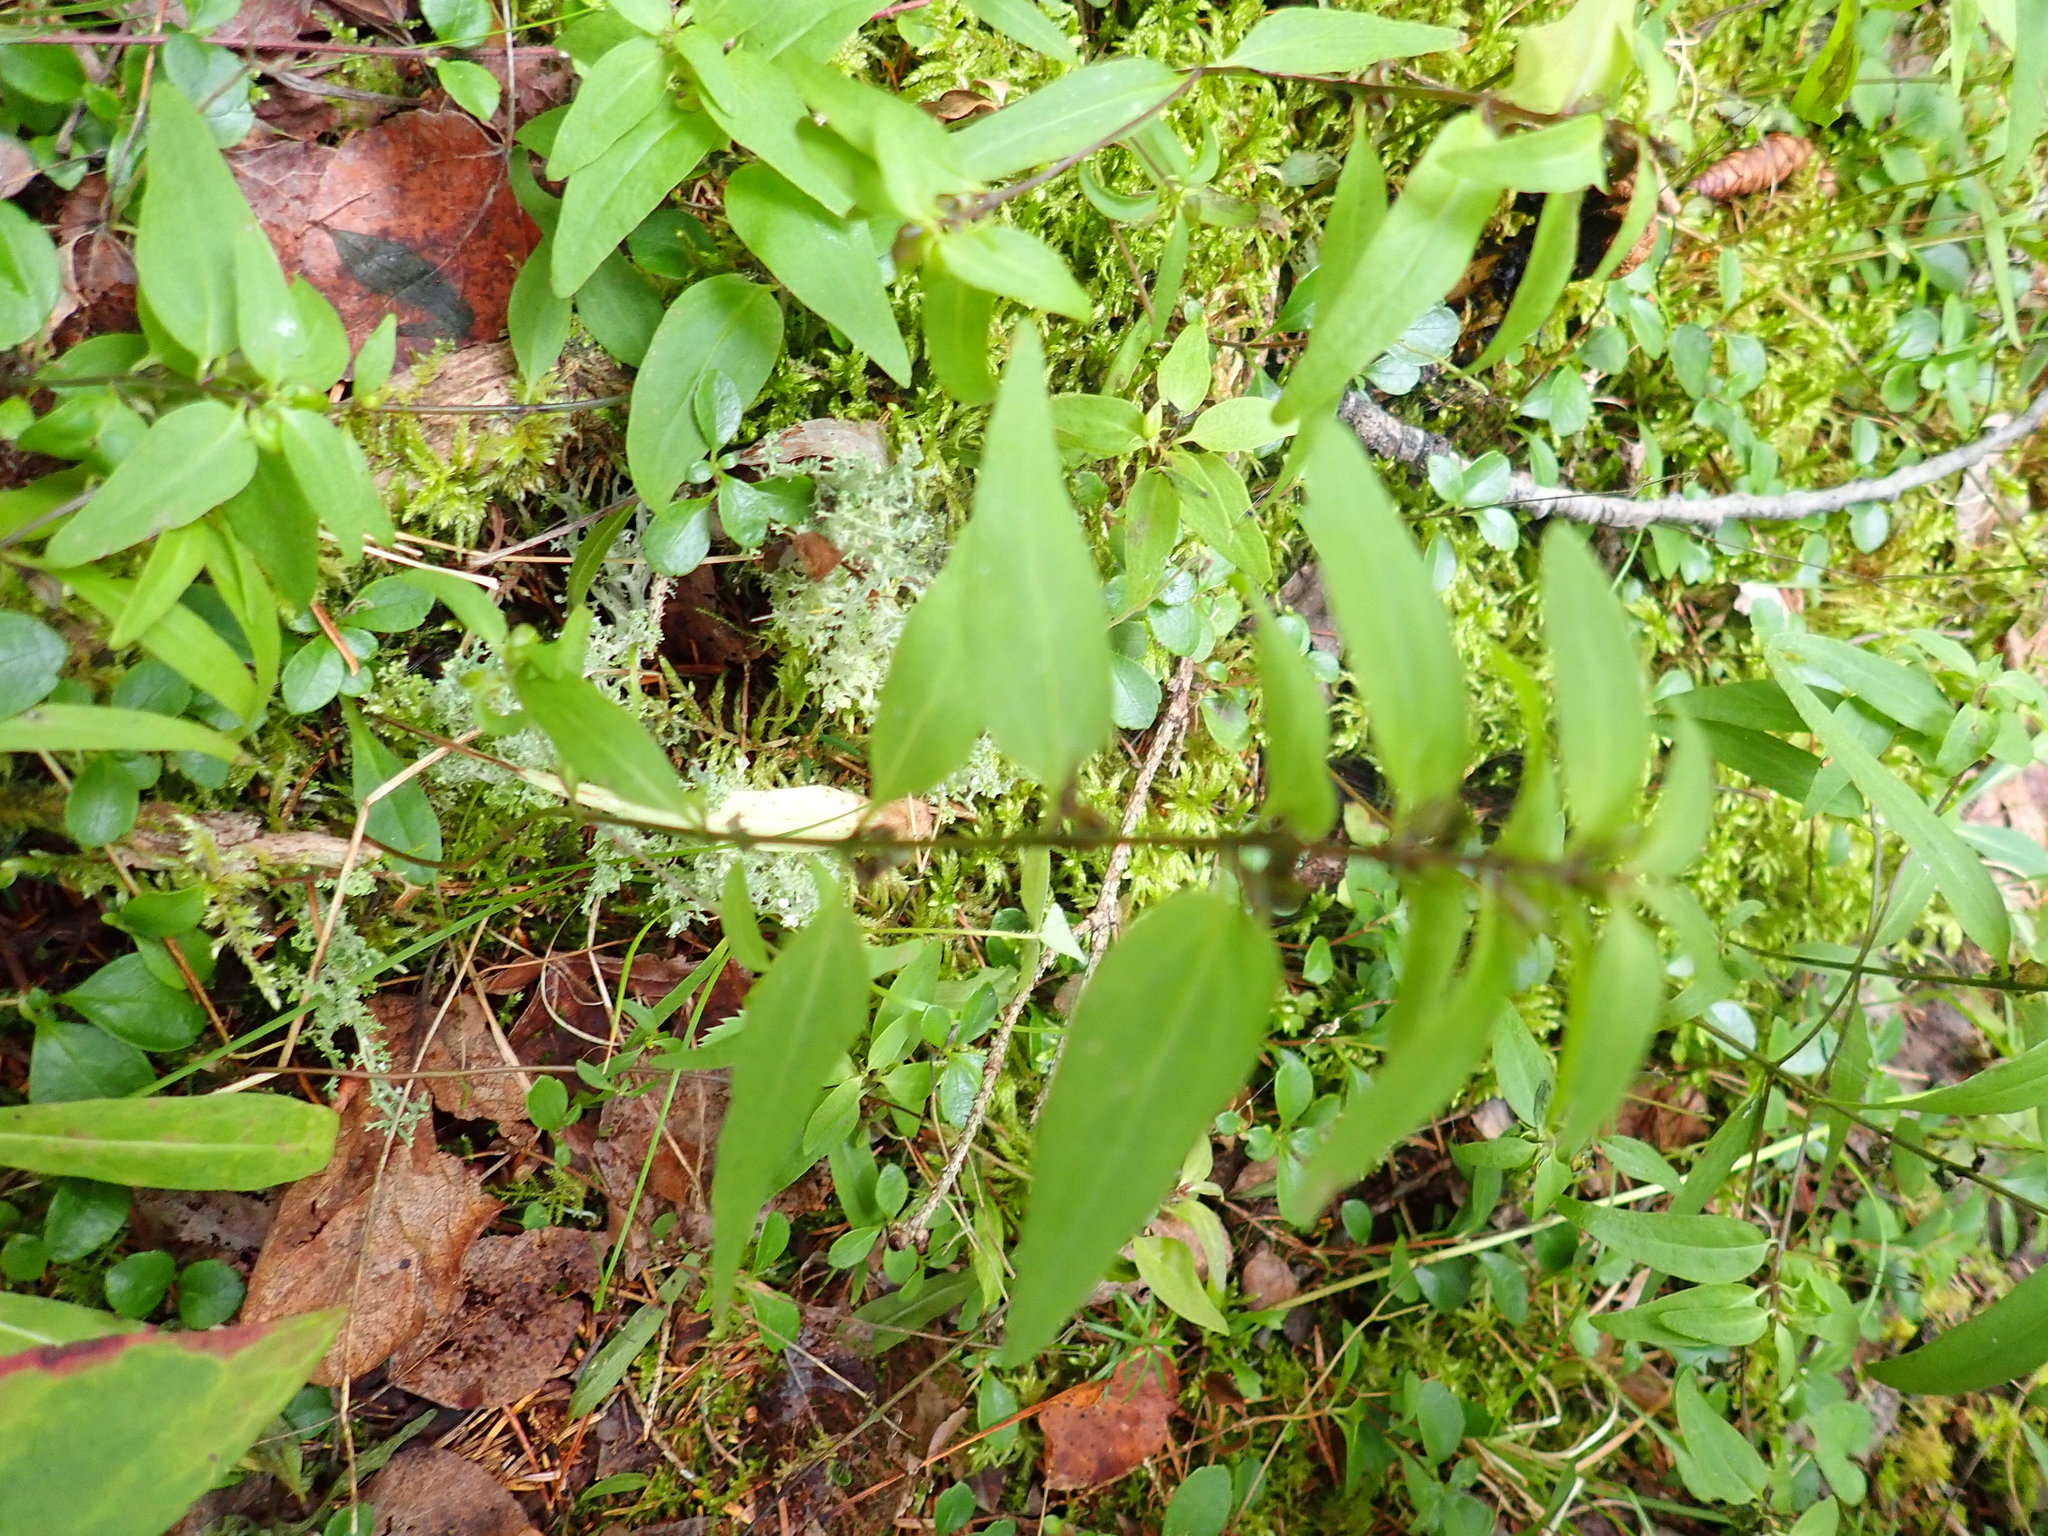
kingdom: Plantae
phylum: Tracheophyta
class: Magnoliopsida
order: Lamiales
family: Orobanchaceae
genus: Melampyrum
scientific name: Melampyrum lineare
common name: American cow-wheat
